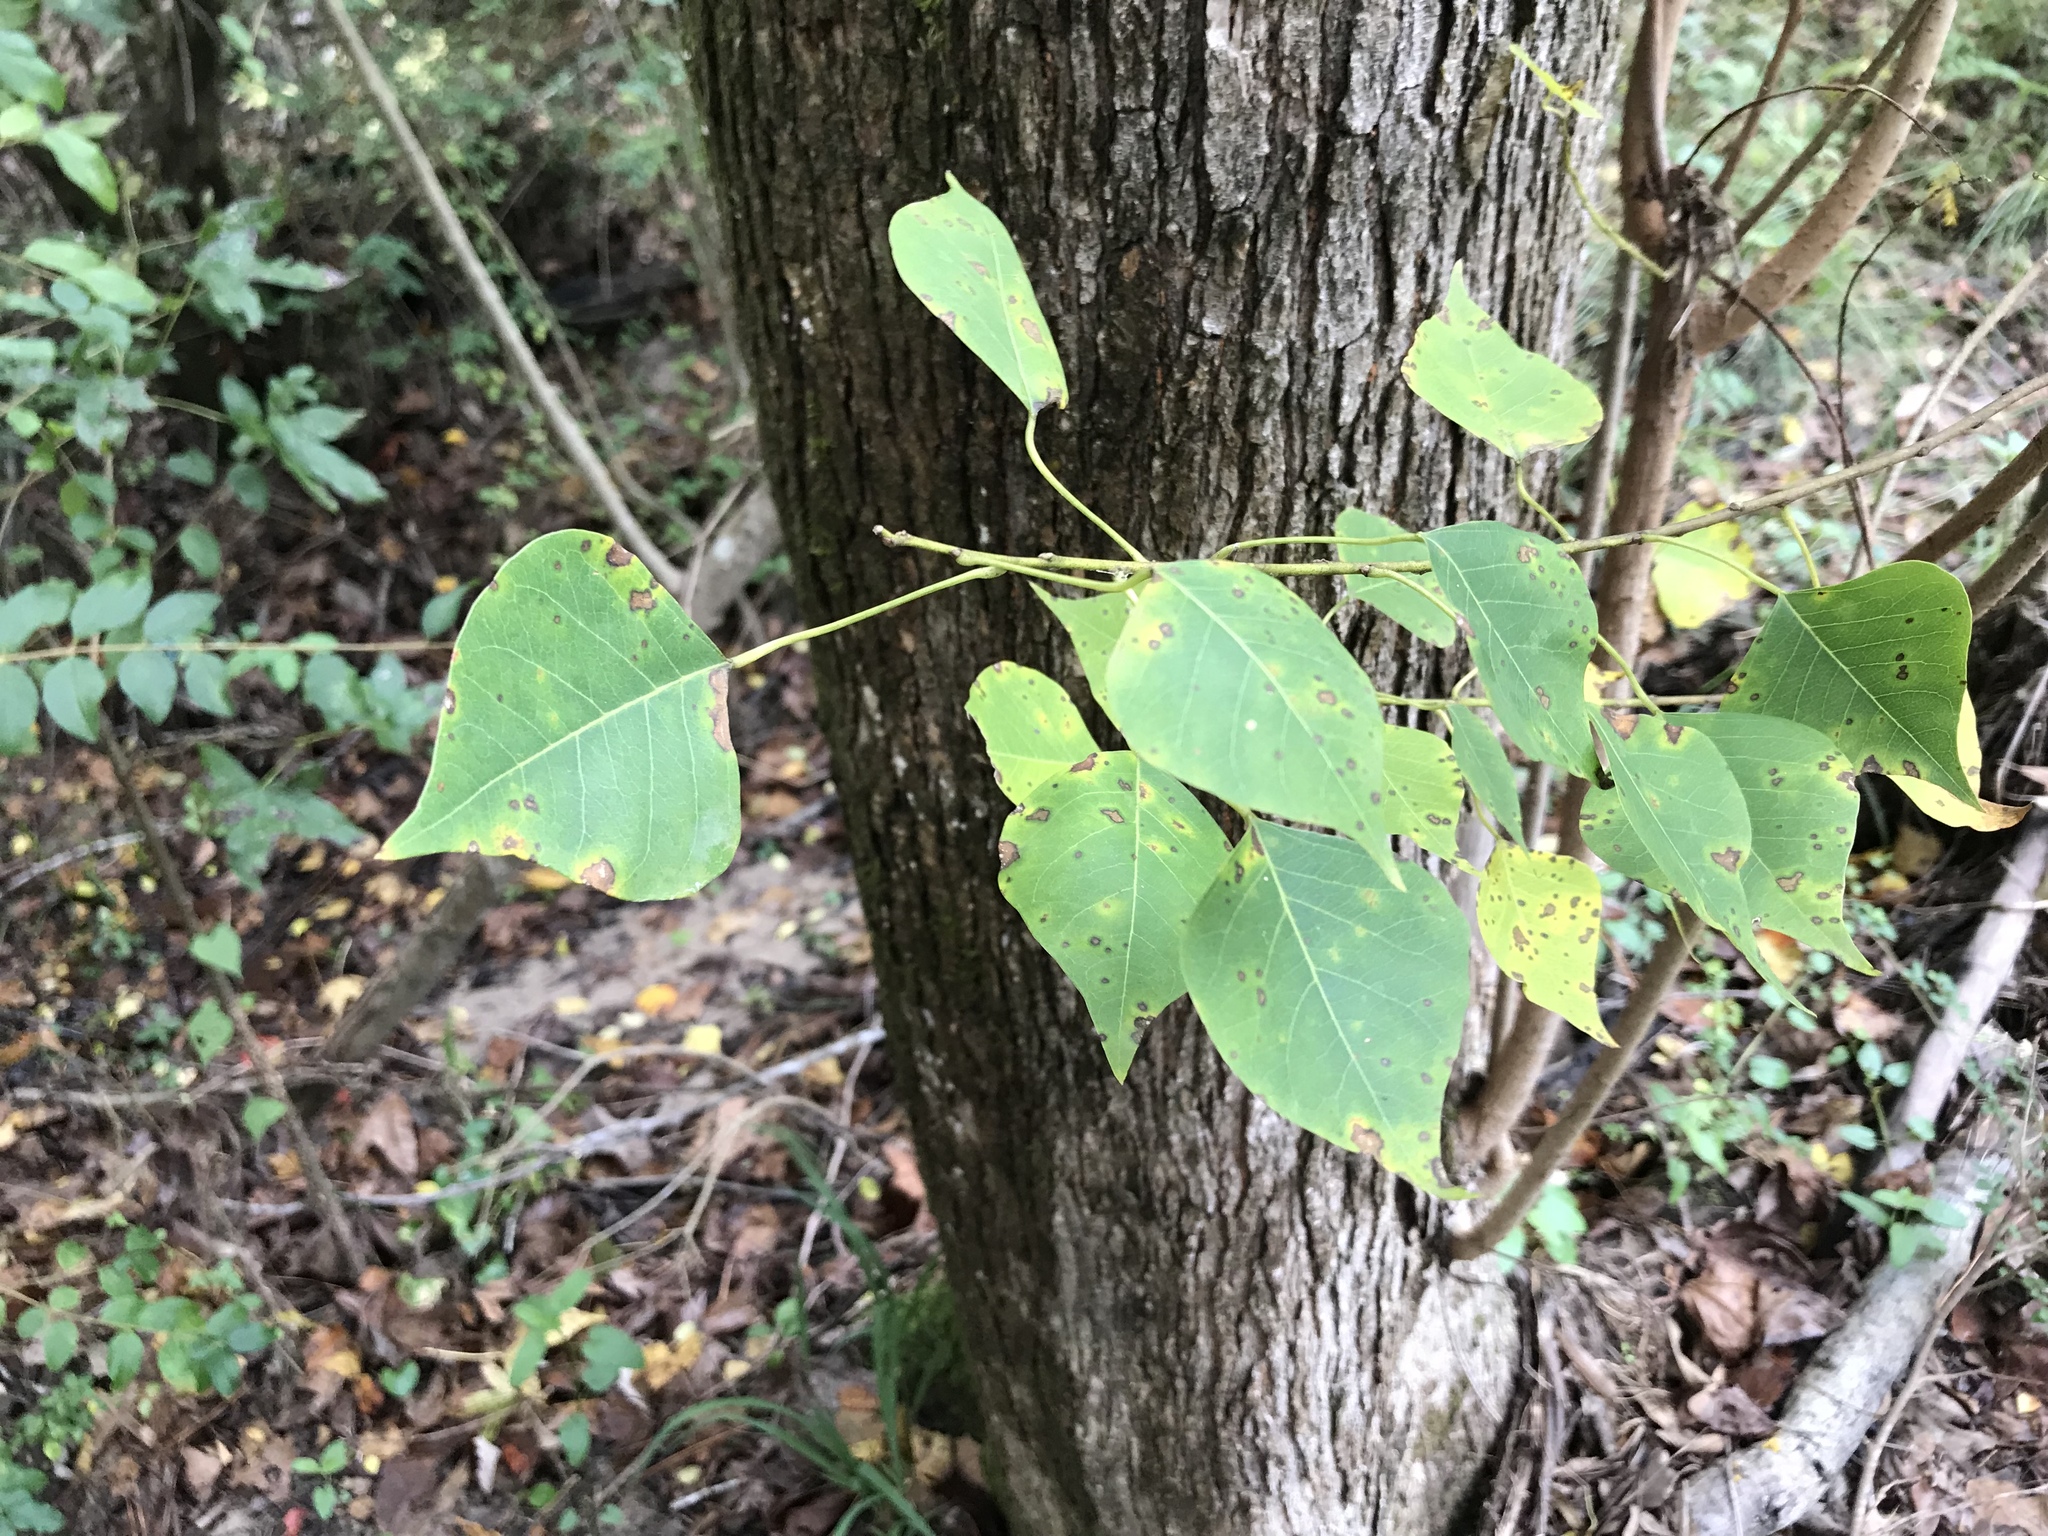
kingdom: Plantae
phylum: Tracheophyta
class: Magnoliopsida
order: Malpighiales
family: Euphorbiaceae
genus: Triadica
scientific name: Triadica sebifera
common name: Chinese tallow
